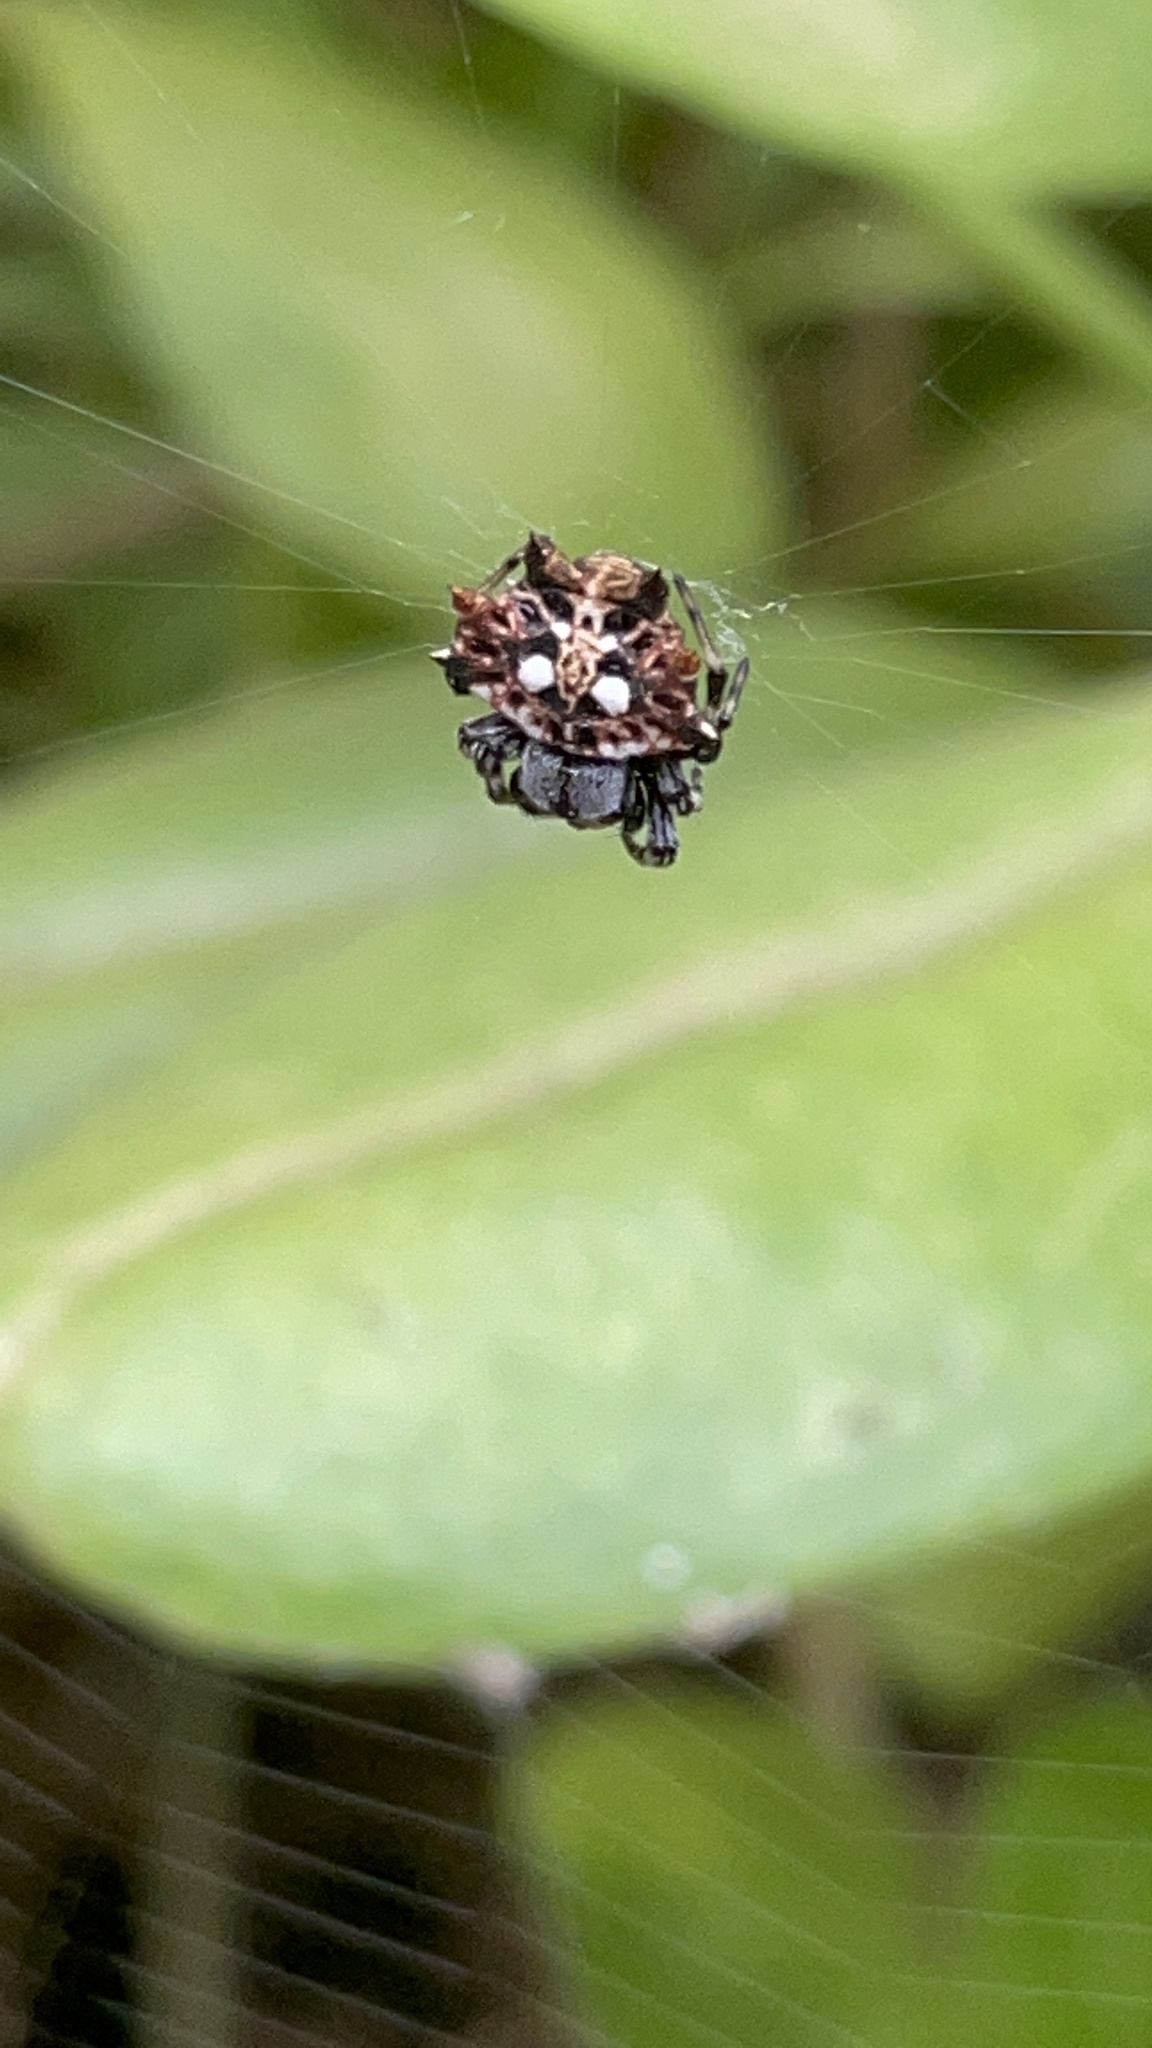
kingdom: Animalia
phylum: Arthropoda
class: Arachnida
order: Araneae
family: Araneidae
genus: Thelacantha
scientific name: Thelacantha brevispina
